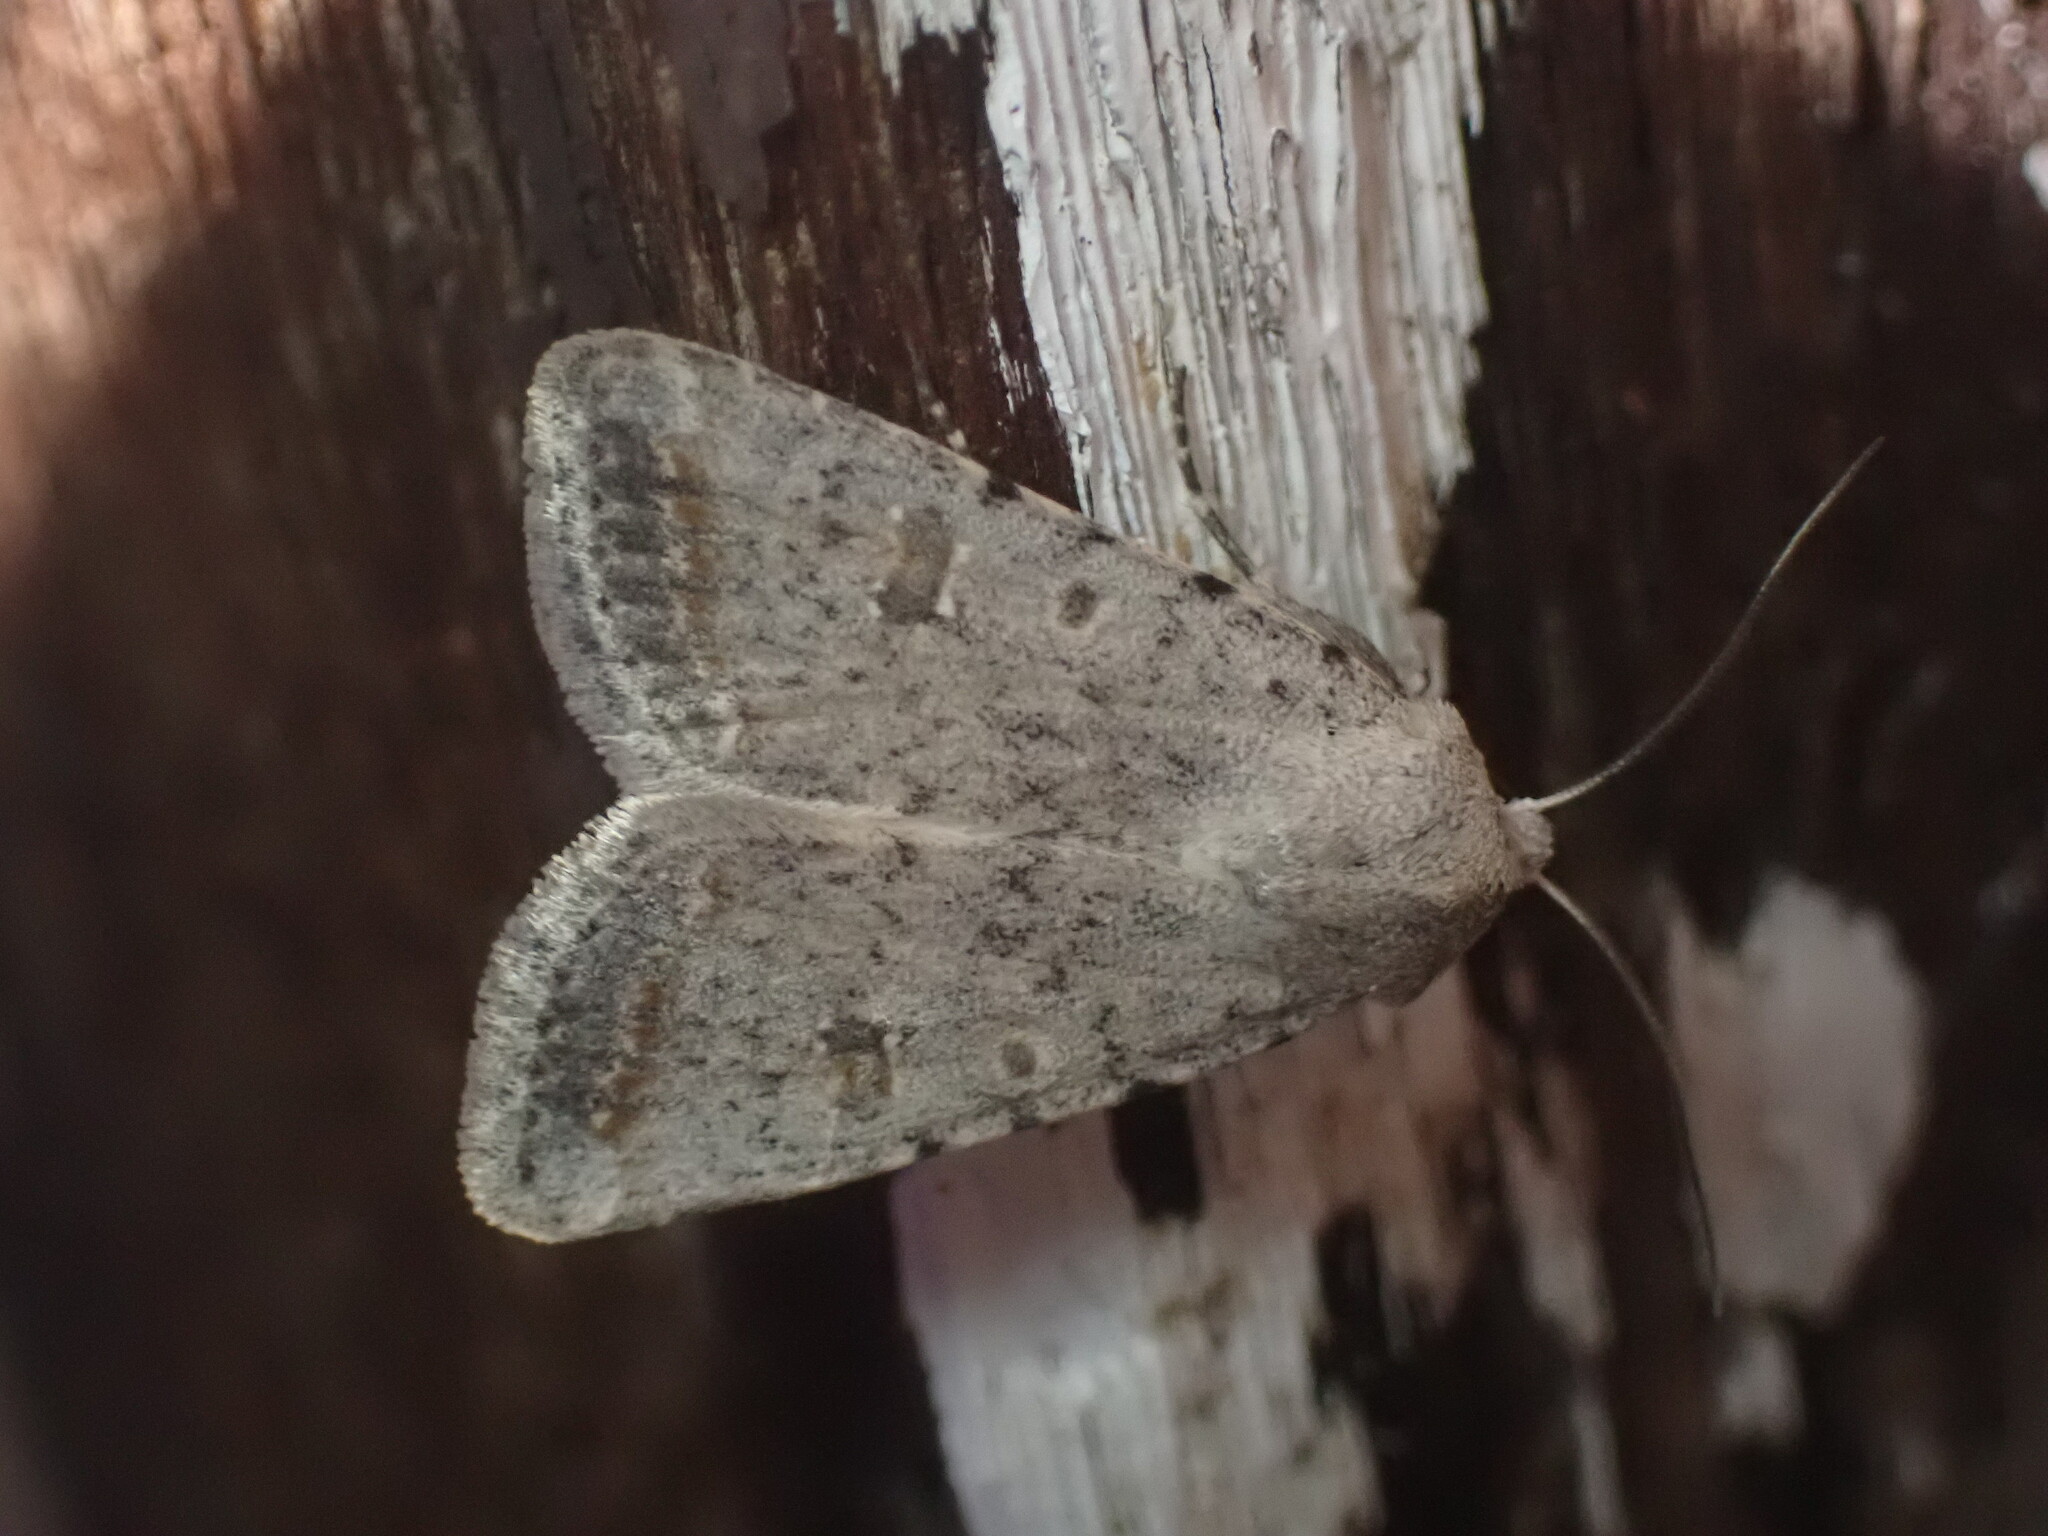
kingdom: Animalia
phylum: Arthropoda
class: Insecta
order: Lepidoptera
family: Noctuidae
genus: Caradrina
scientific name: Caradrina montana
